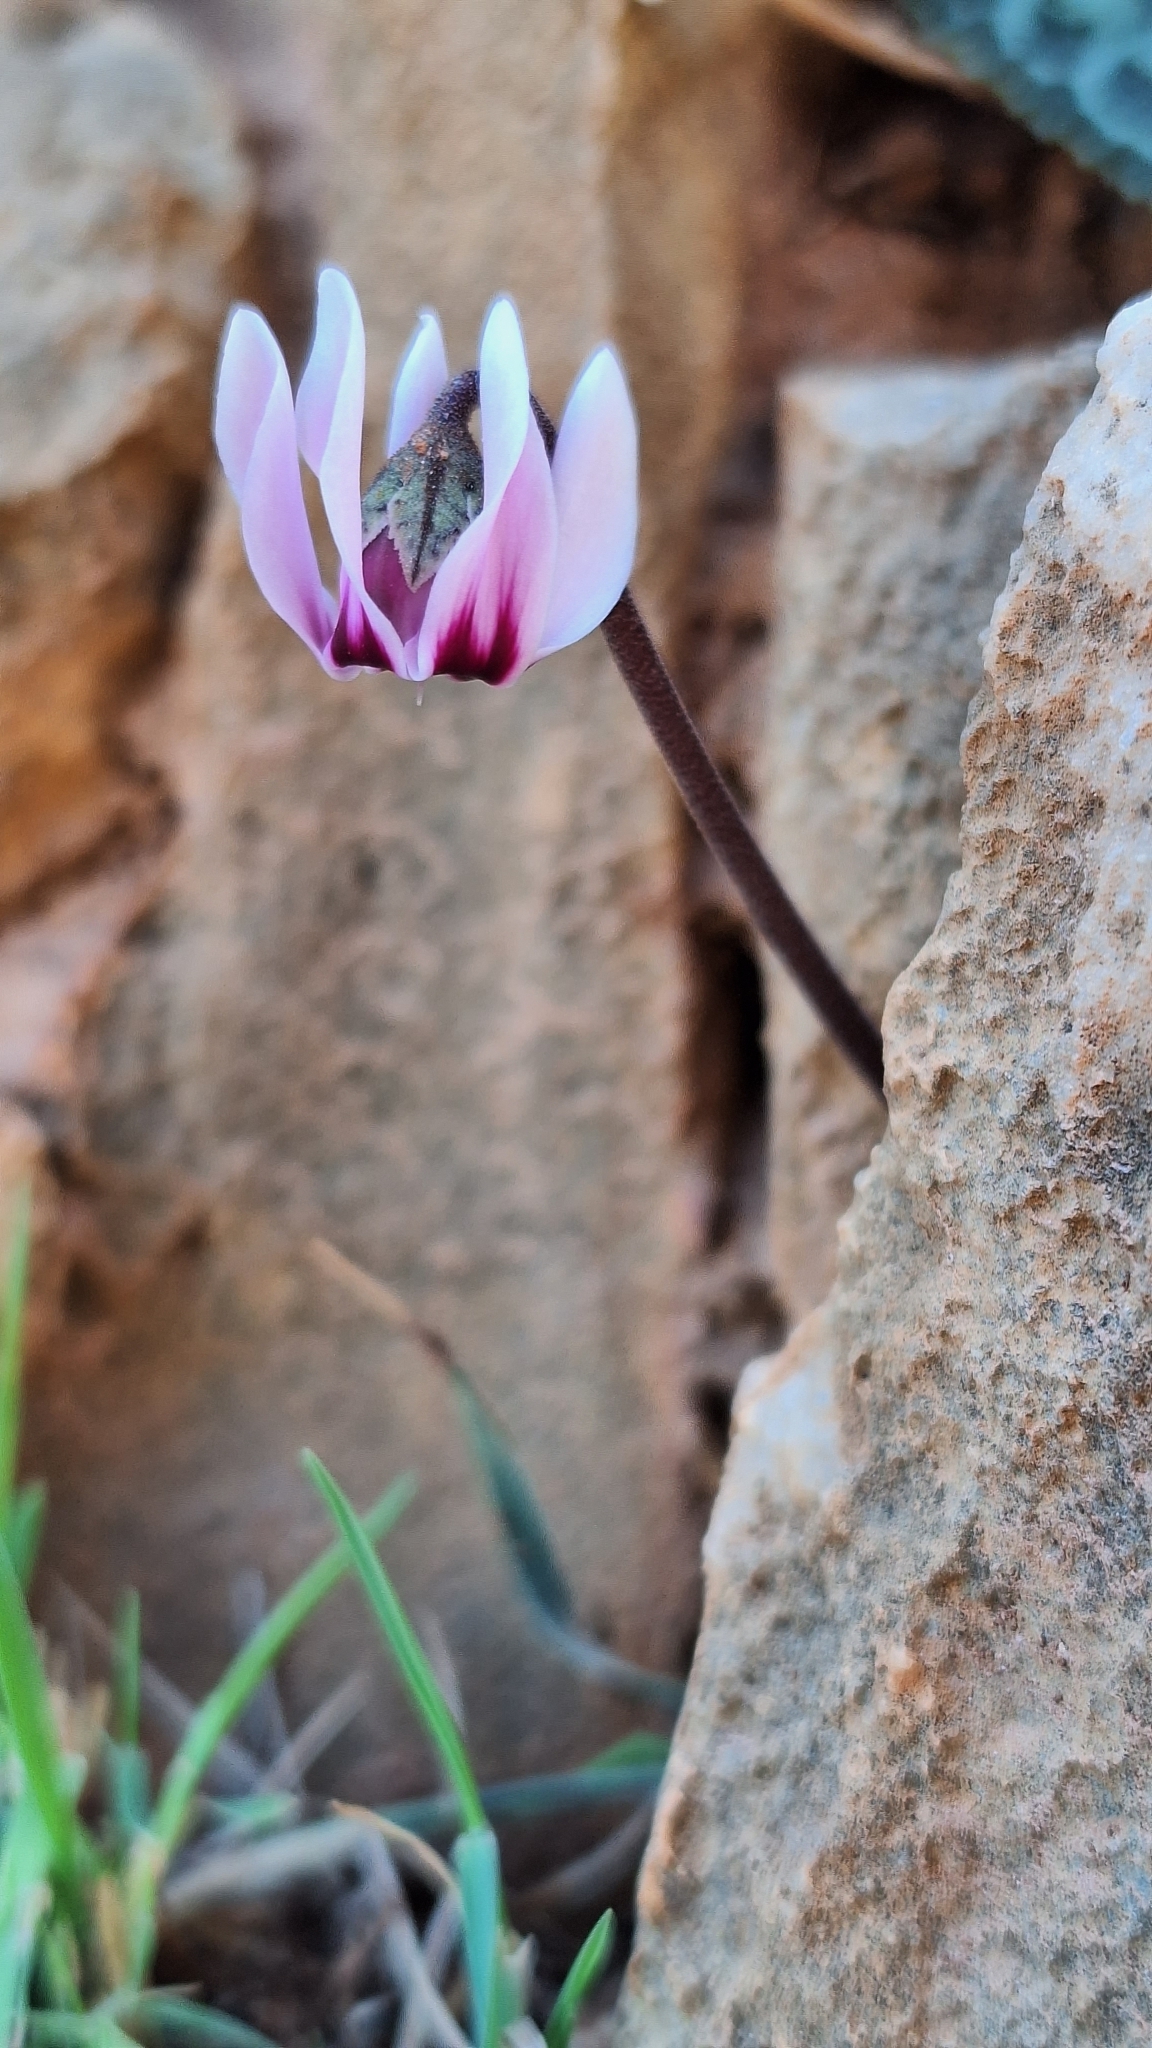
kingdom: Plantae
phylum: Tracheophyta
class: Magnoliopsida
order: Ericales
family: Primulaceae
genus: Cyclamen
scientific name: Cyclamen graecum
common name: Greek cyclamen
